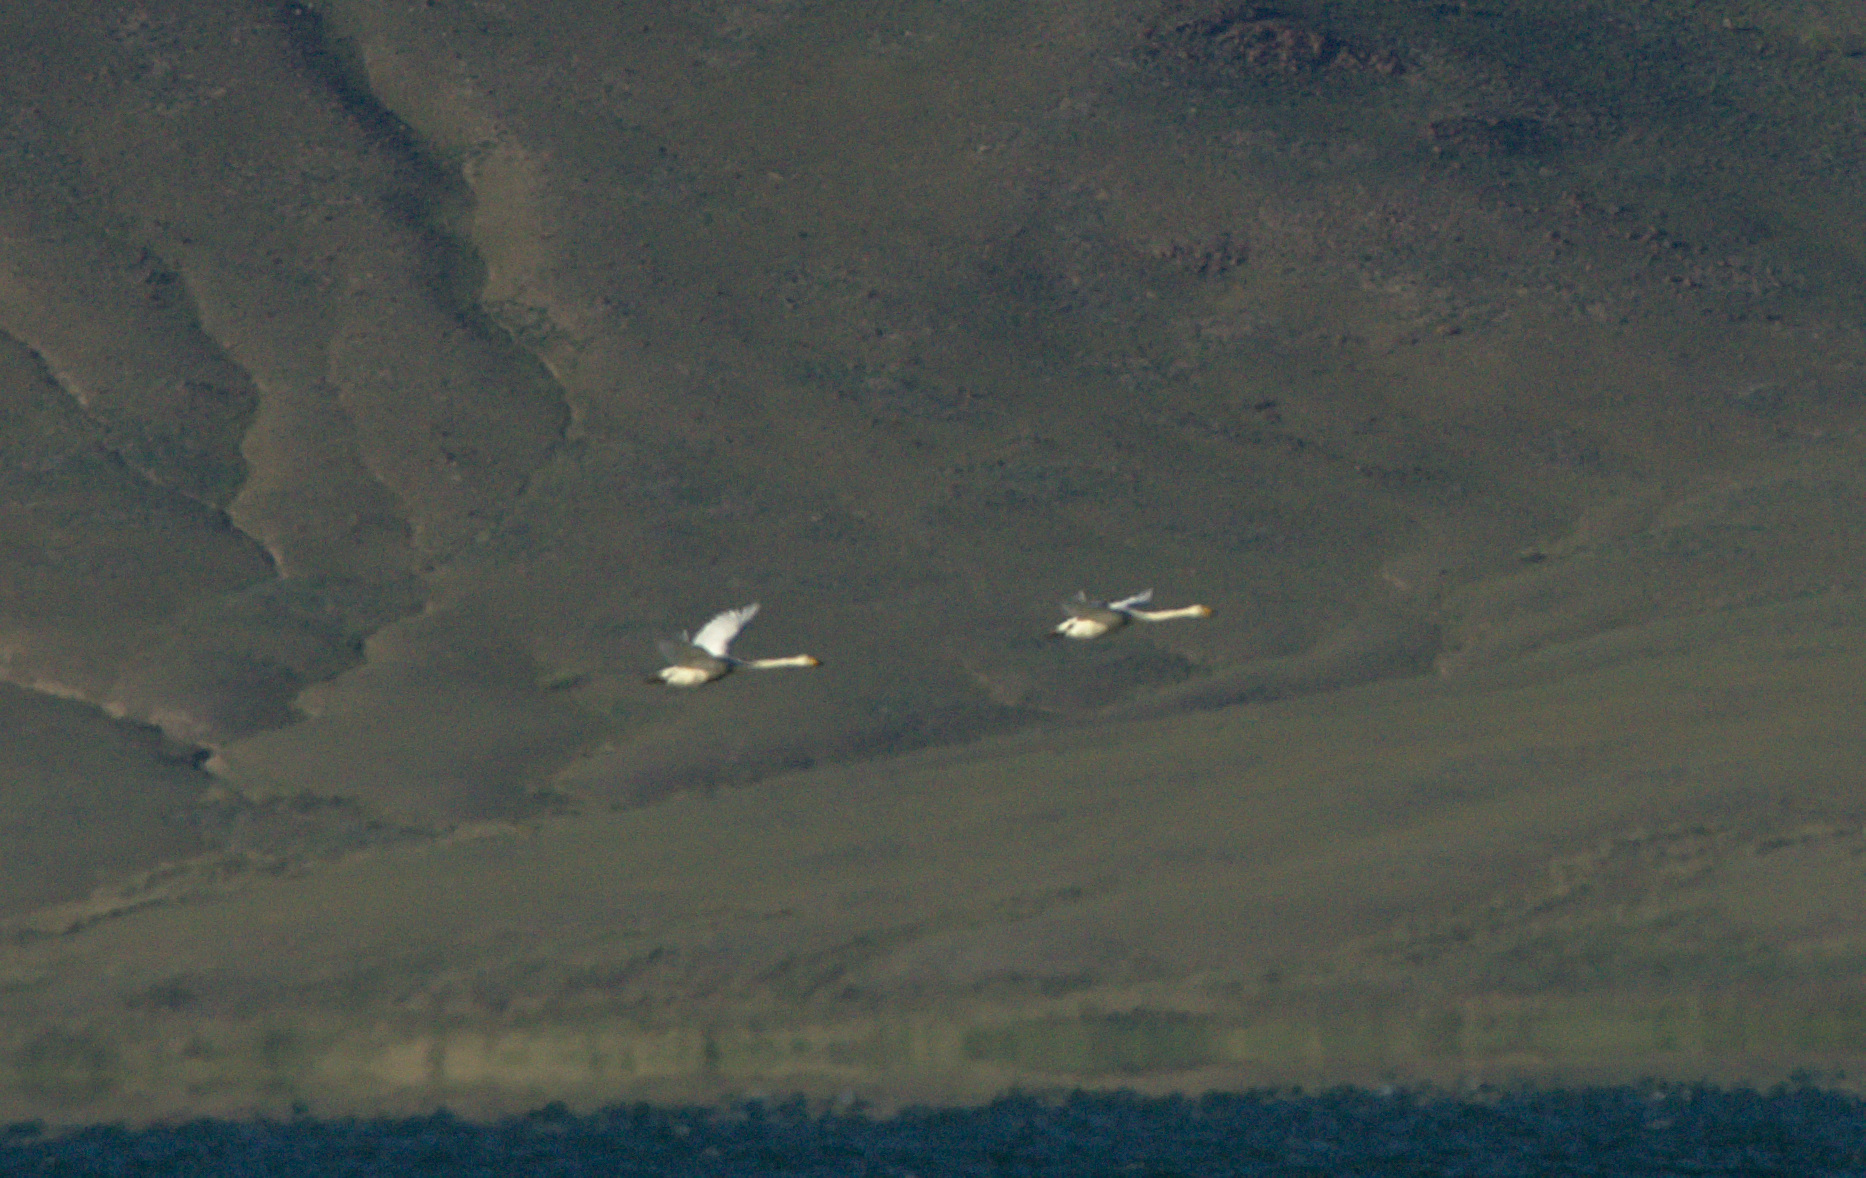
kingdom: Animalia
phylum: Chordata
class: Aves
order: Anseriformes
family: Anatidae
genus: Cygnus
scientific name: Cygnus cygnus
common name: Whooper swan
